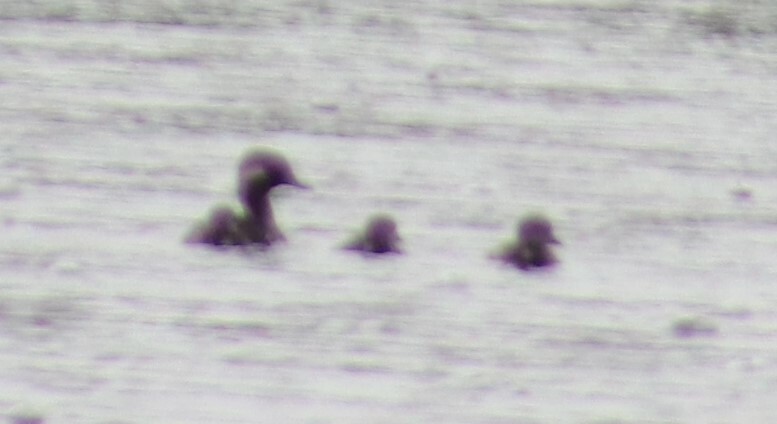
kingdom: Animalia
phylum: Chordata
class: Aves
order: Anseriformes
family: Anatidae
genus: Bucephala
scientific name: Bucephala albeola
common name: Bufflehead
